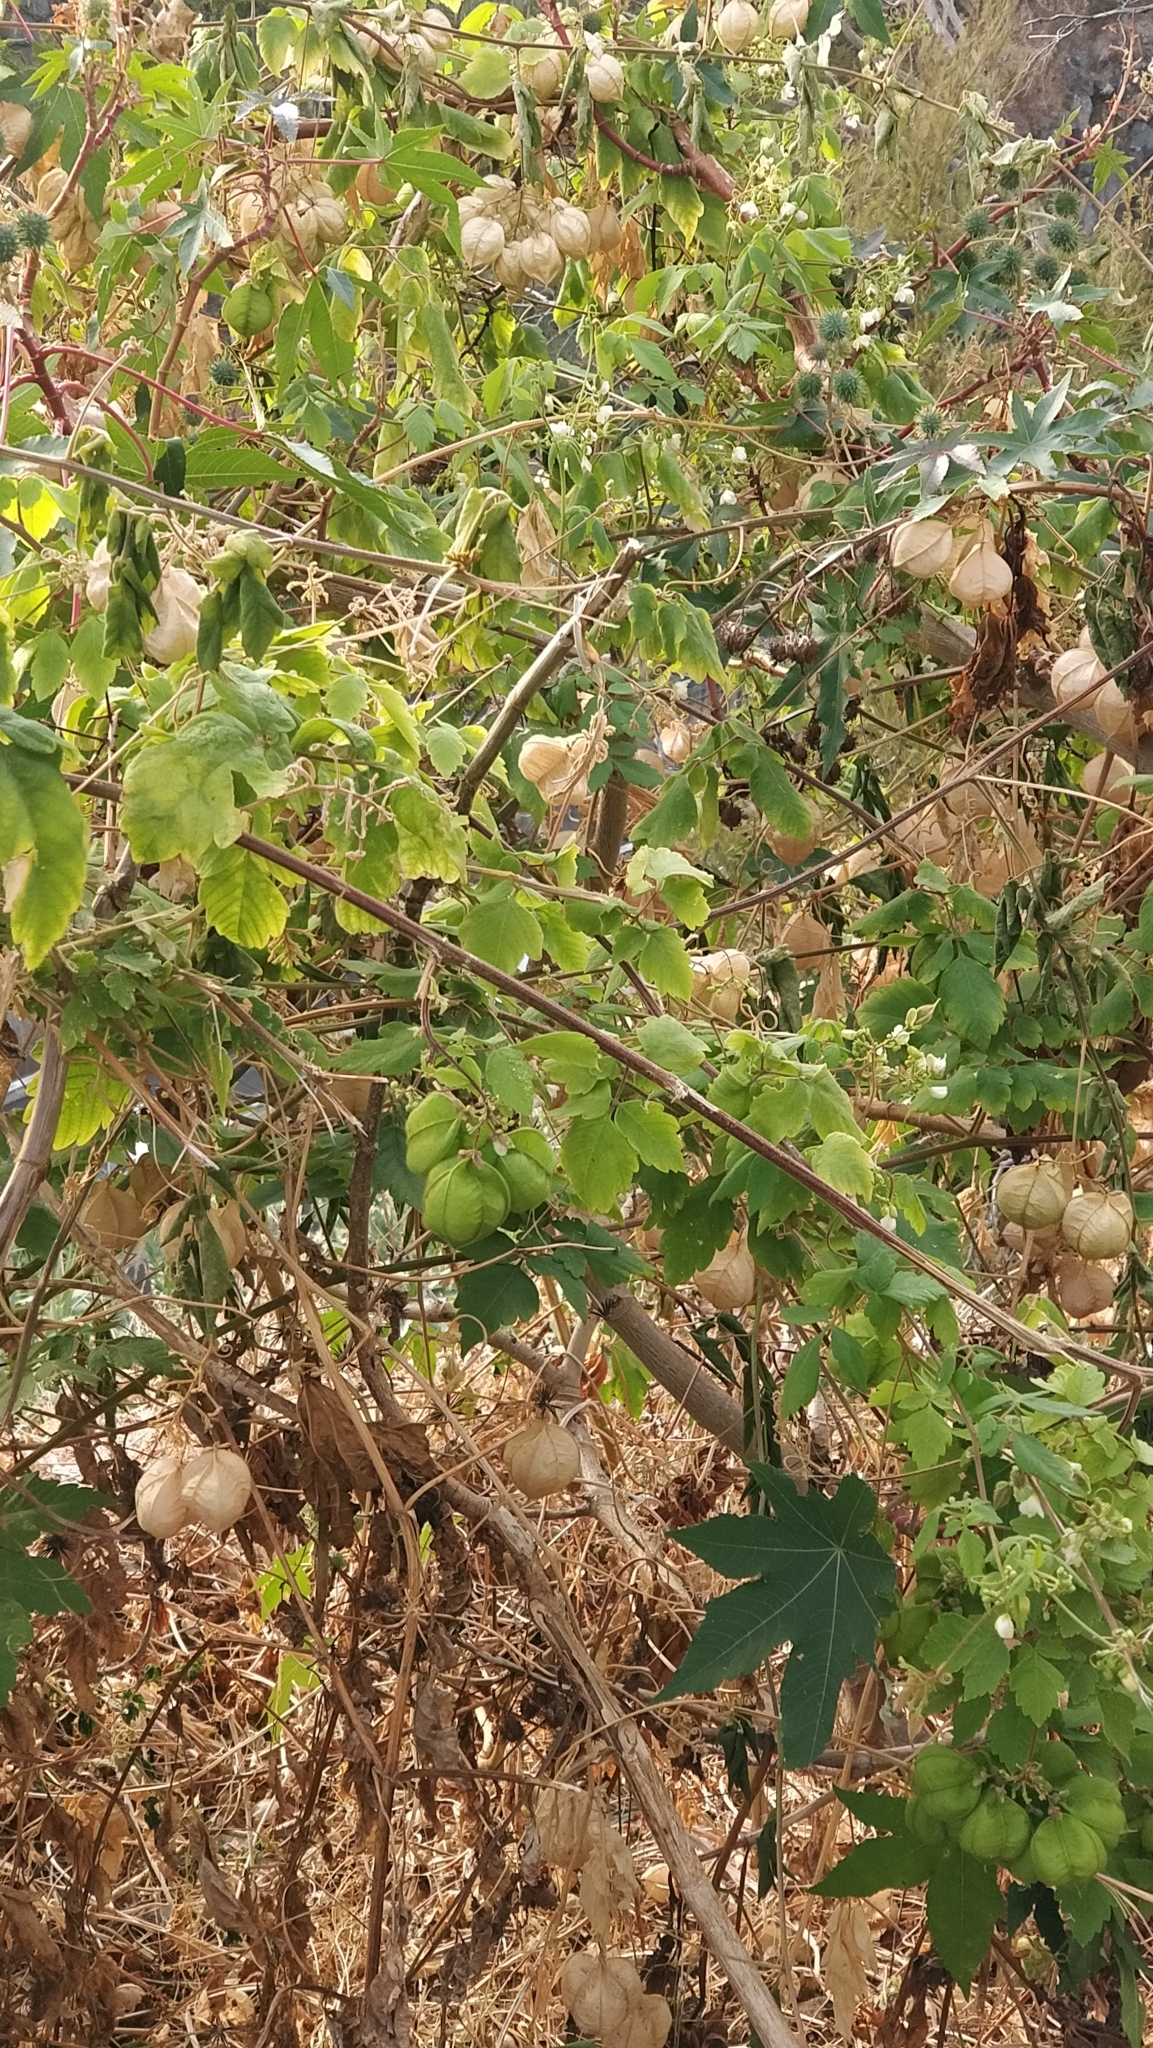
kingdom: Plantae
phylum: Tracheophyta
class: Magnoliopsida
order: Sapindales
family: Sapindaceae
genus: Cardiospermum
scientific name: Cardiospermum grandiflorum
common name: Balloon vine
